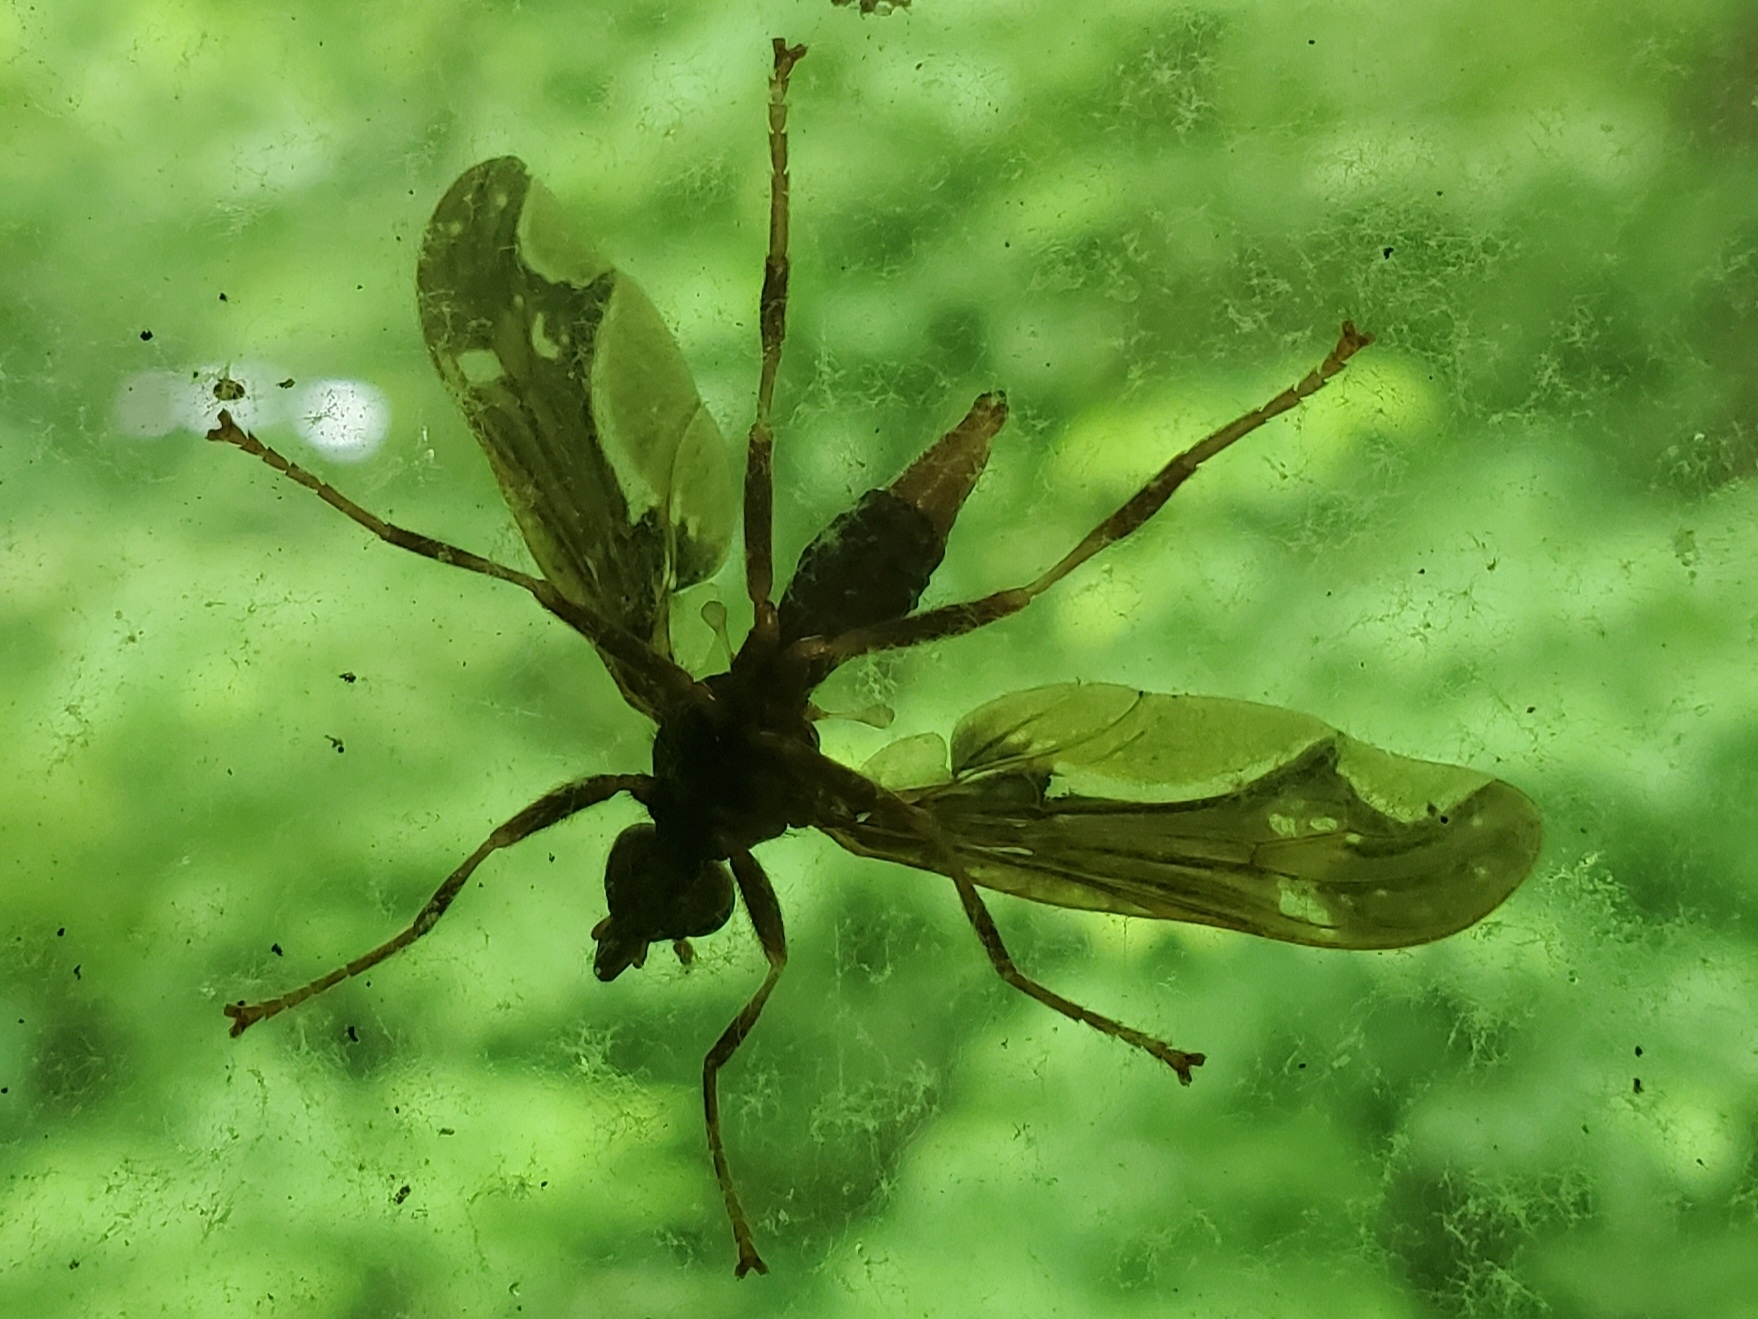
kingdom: Animalia
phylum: Arthropoda
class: Insecta
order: Diptera
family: Pyrgotidae
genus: Pyrgota
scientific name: Pyrgota undata
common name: Waved light fly
